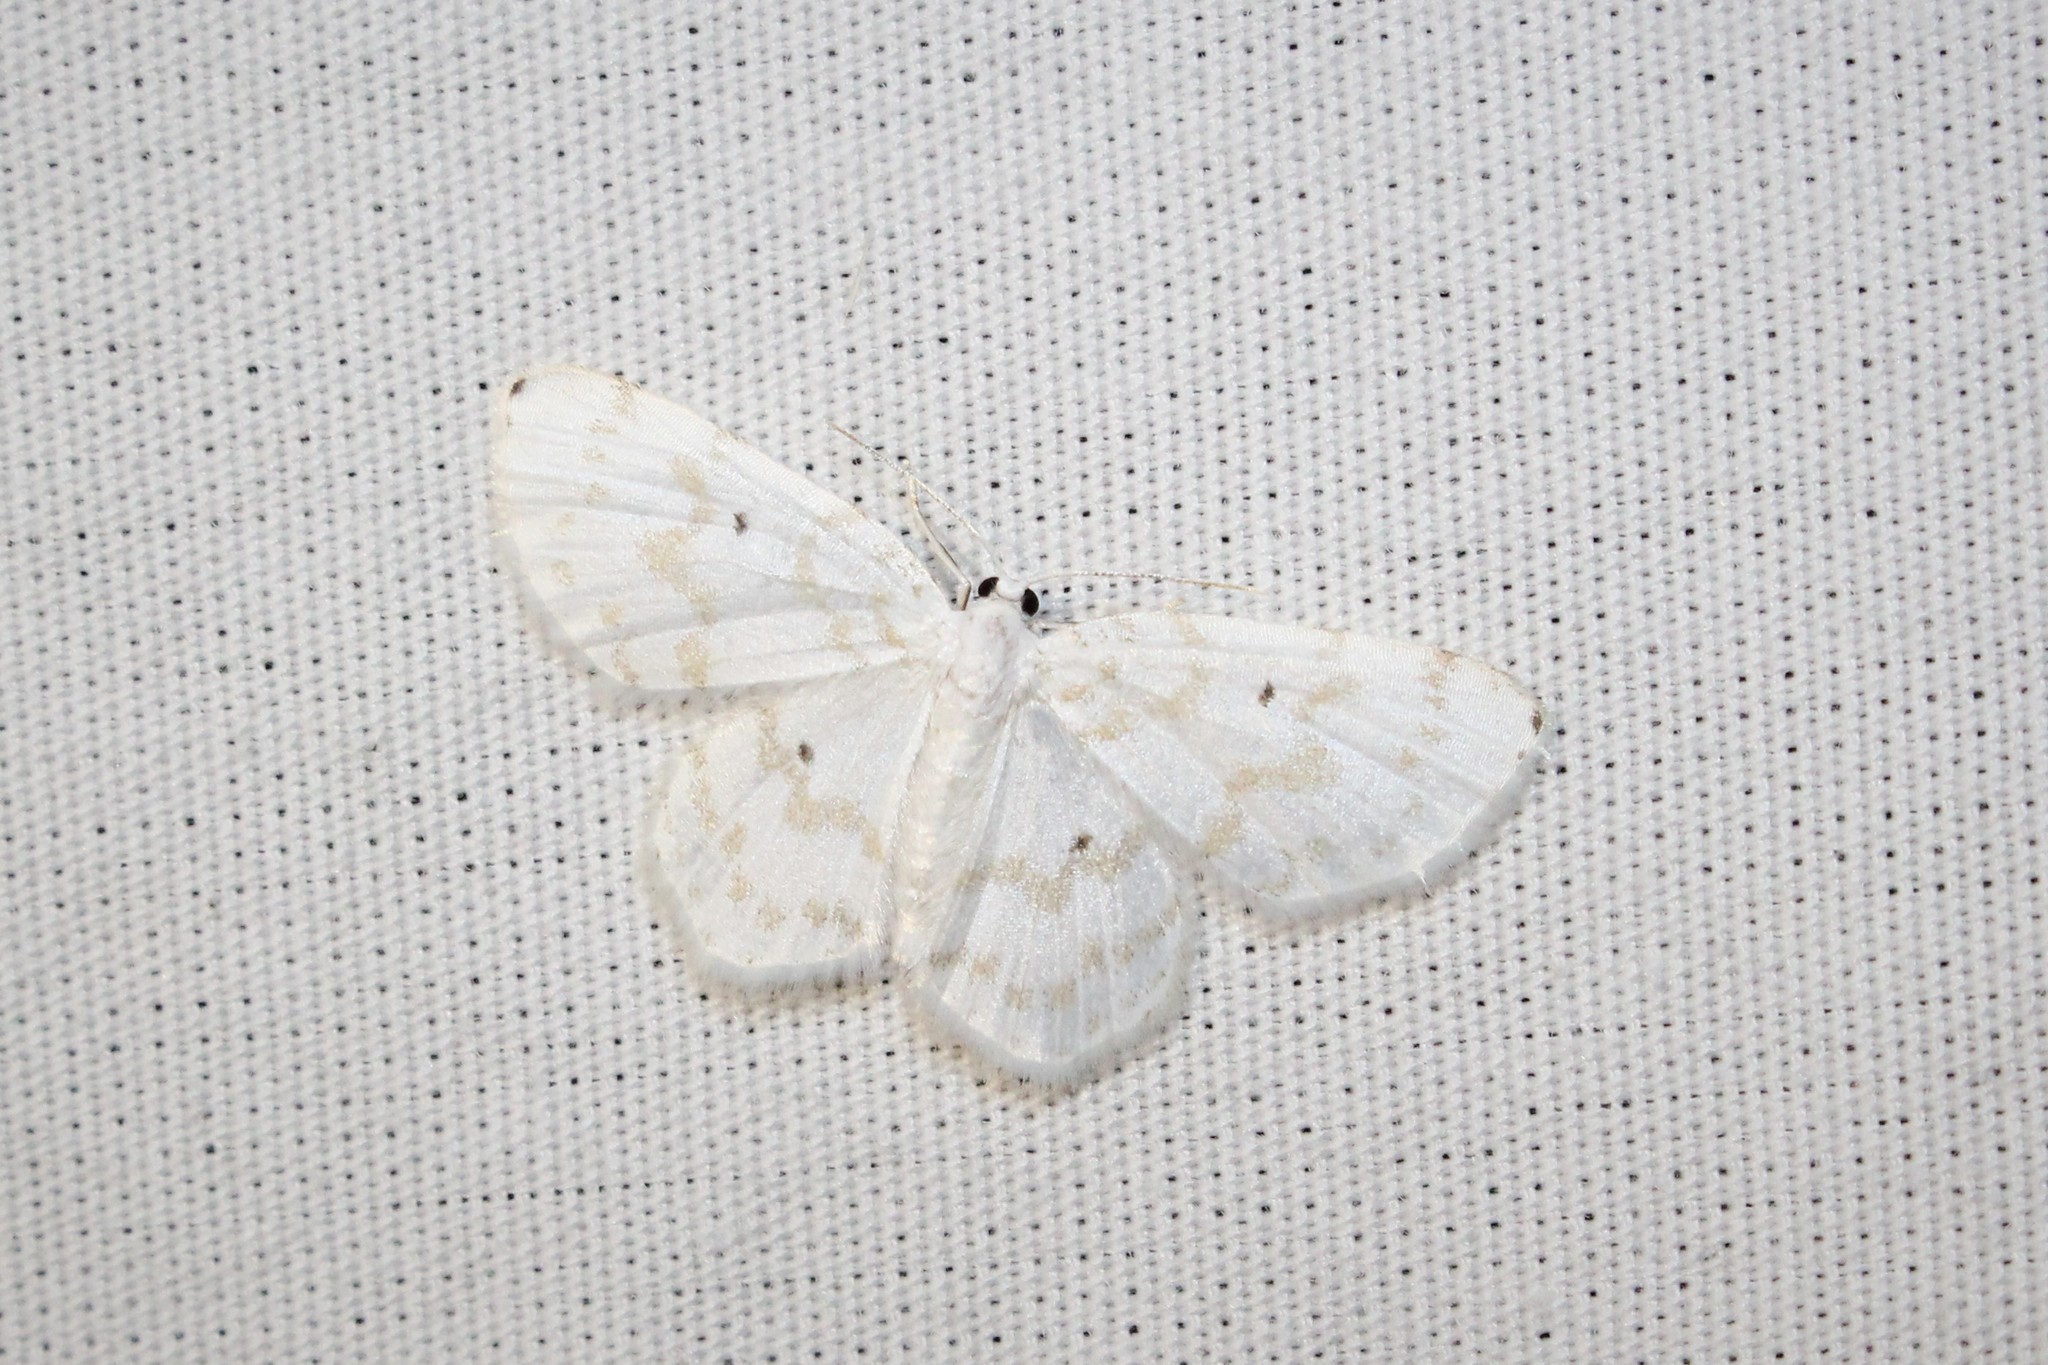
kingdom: Animalia
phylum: Arthropoda
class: Insecta
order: Lepidoptera
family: Geometridae
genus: Hydrelia
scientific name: Hydrelia albifera
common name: Fragile white carpet
